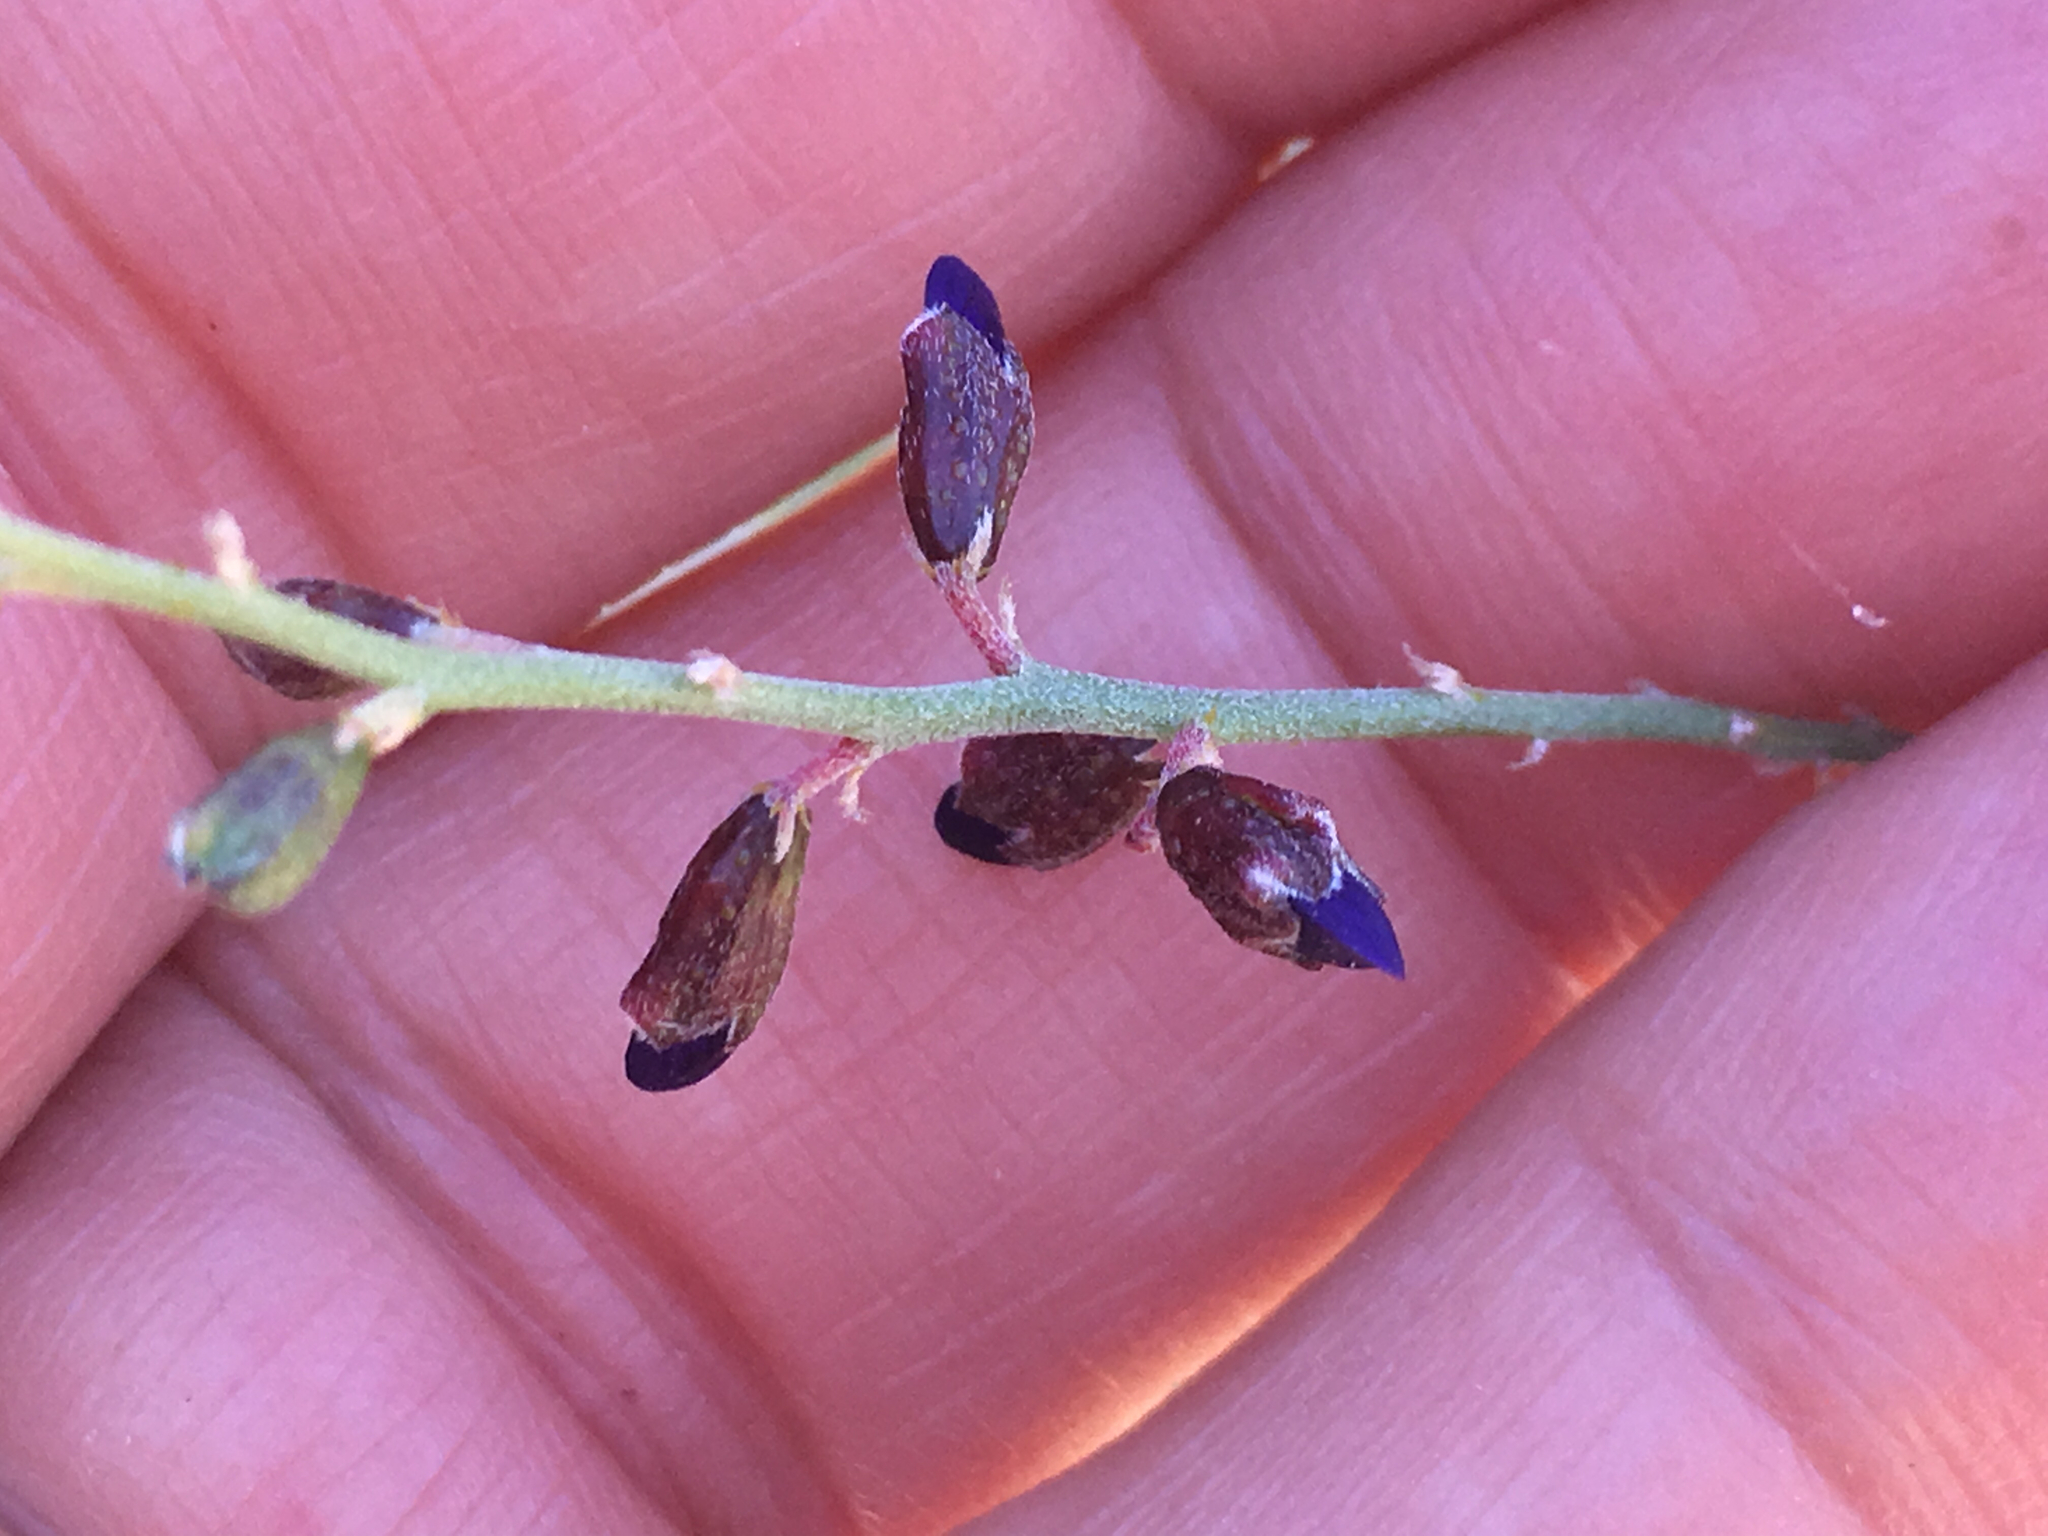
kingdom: Plantae
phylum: Tracheophyta
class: Magnoliopsida
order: Fabales
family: Fabaceae
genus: Psorothamnus
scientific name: Psorothamnus schottii
